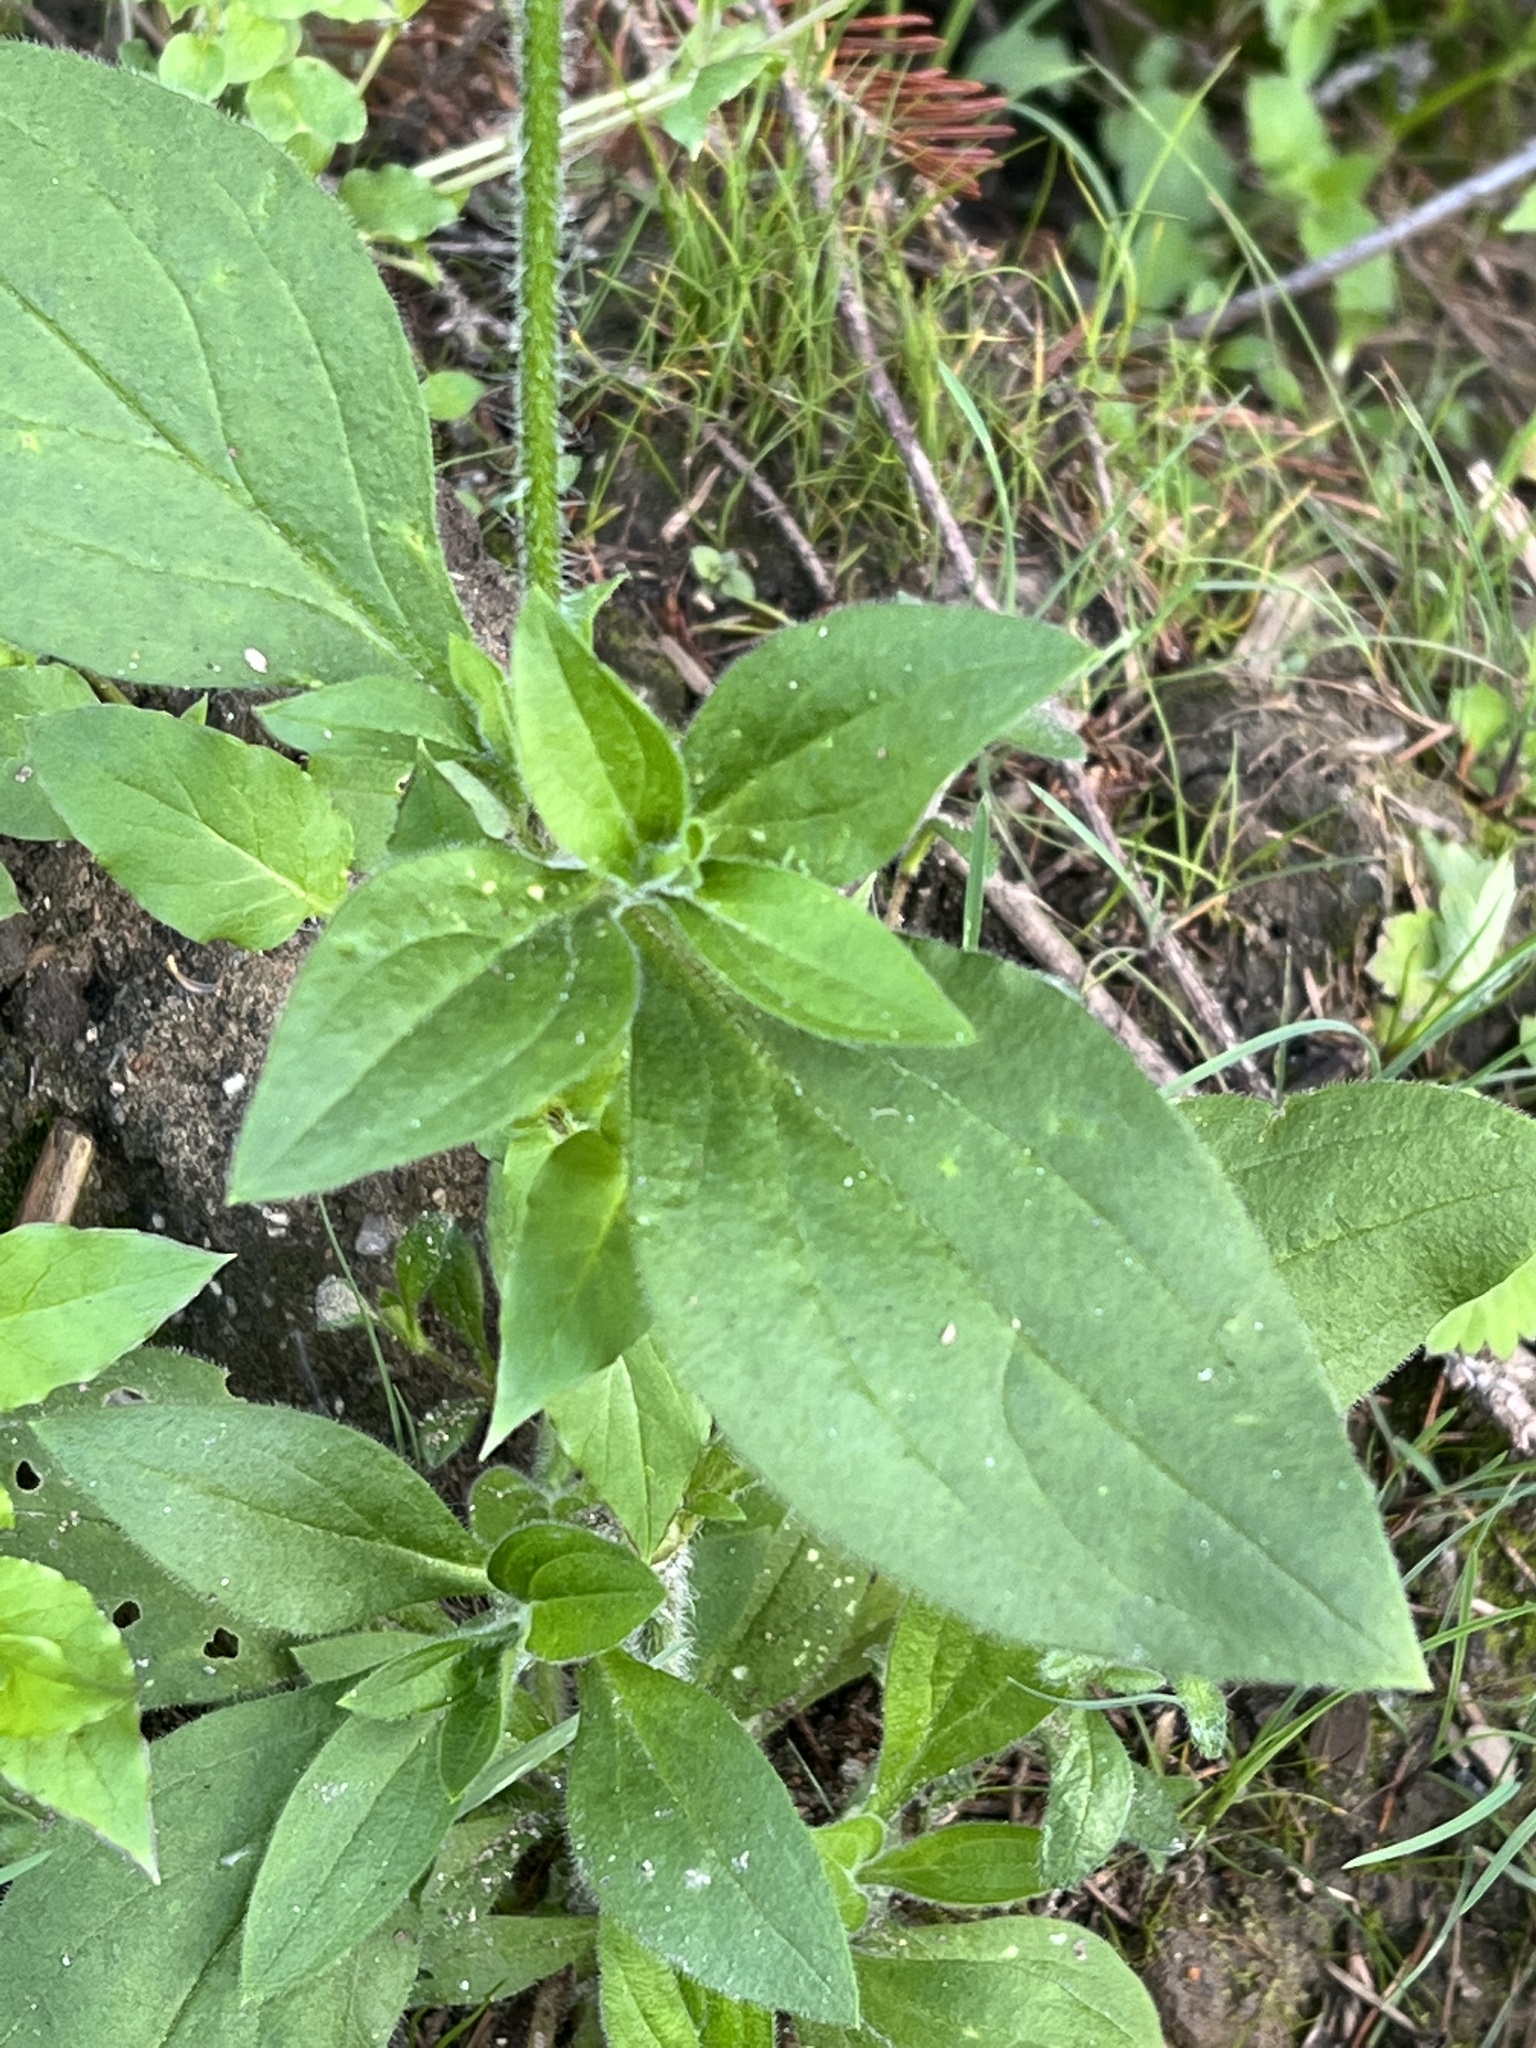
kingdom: Plantae
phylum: Tracheophyta
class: Magnoliopsida
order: Caryophyllales
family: Caryophyllaceae
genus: Silene
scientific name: Silene hampeana
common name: Catchfly
